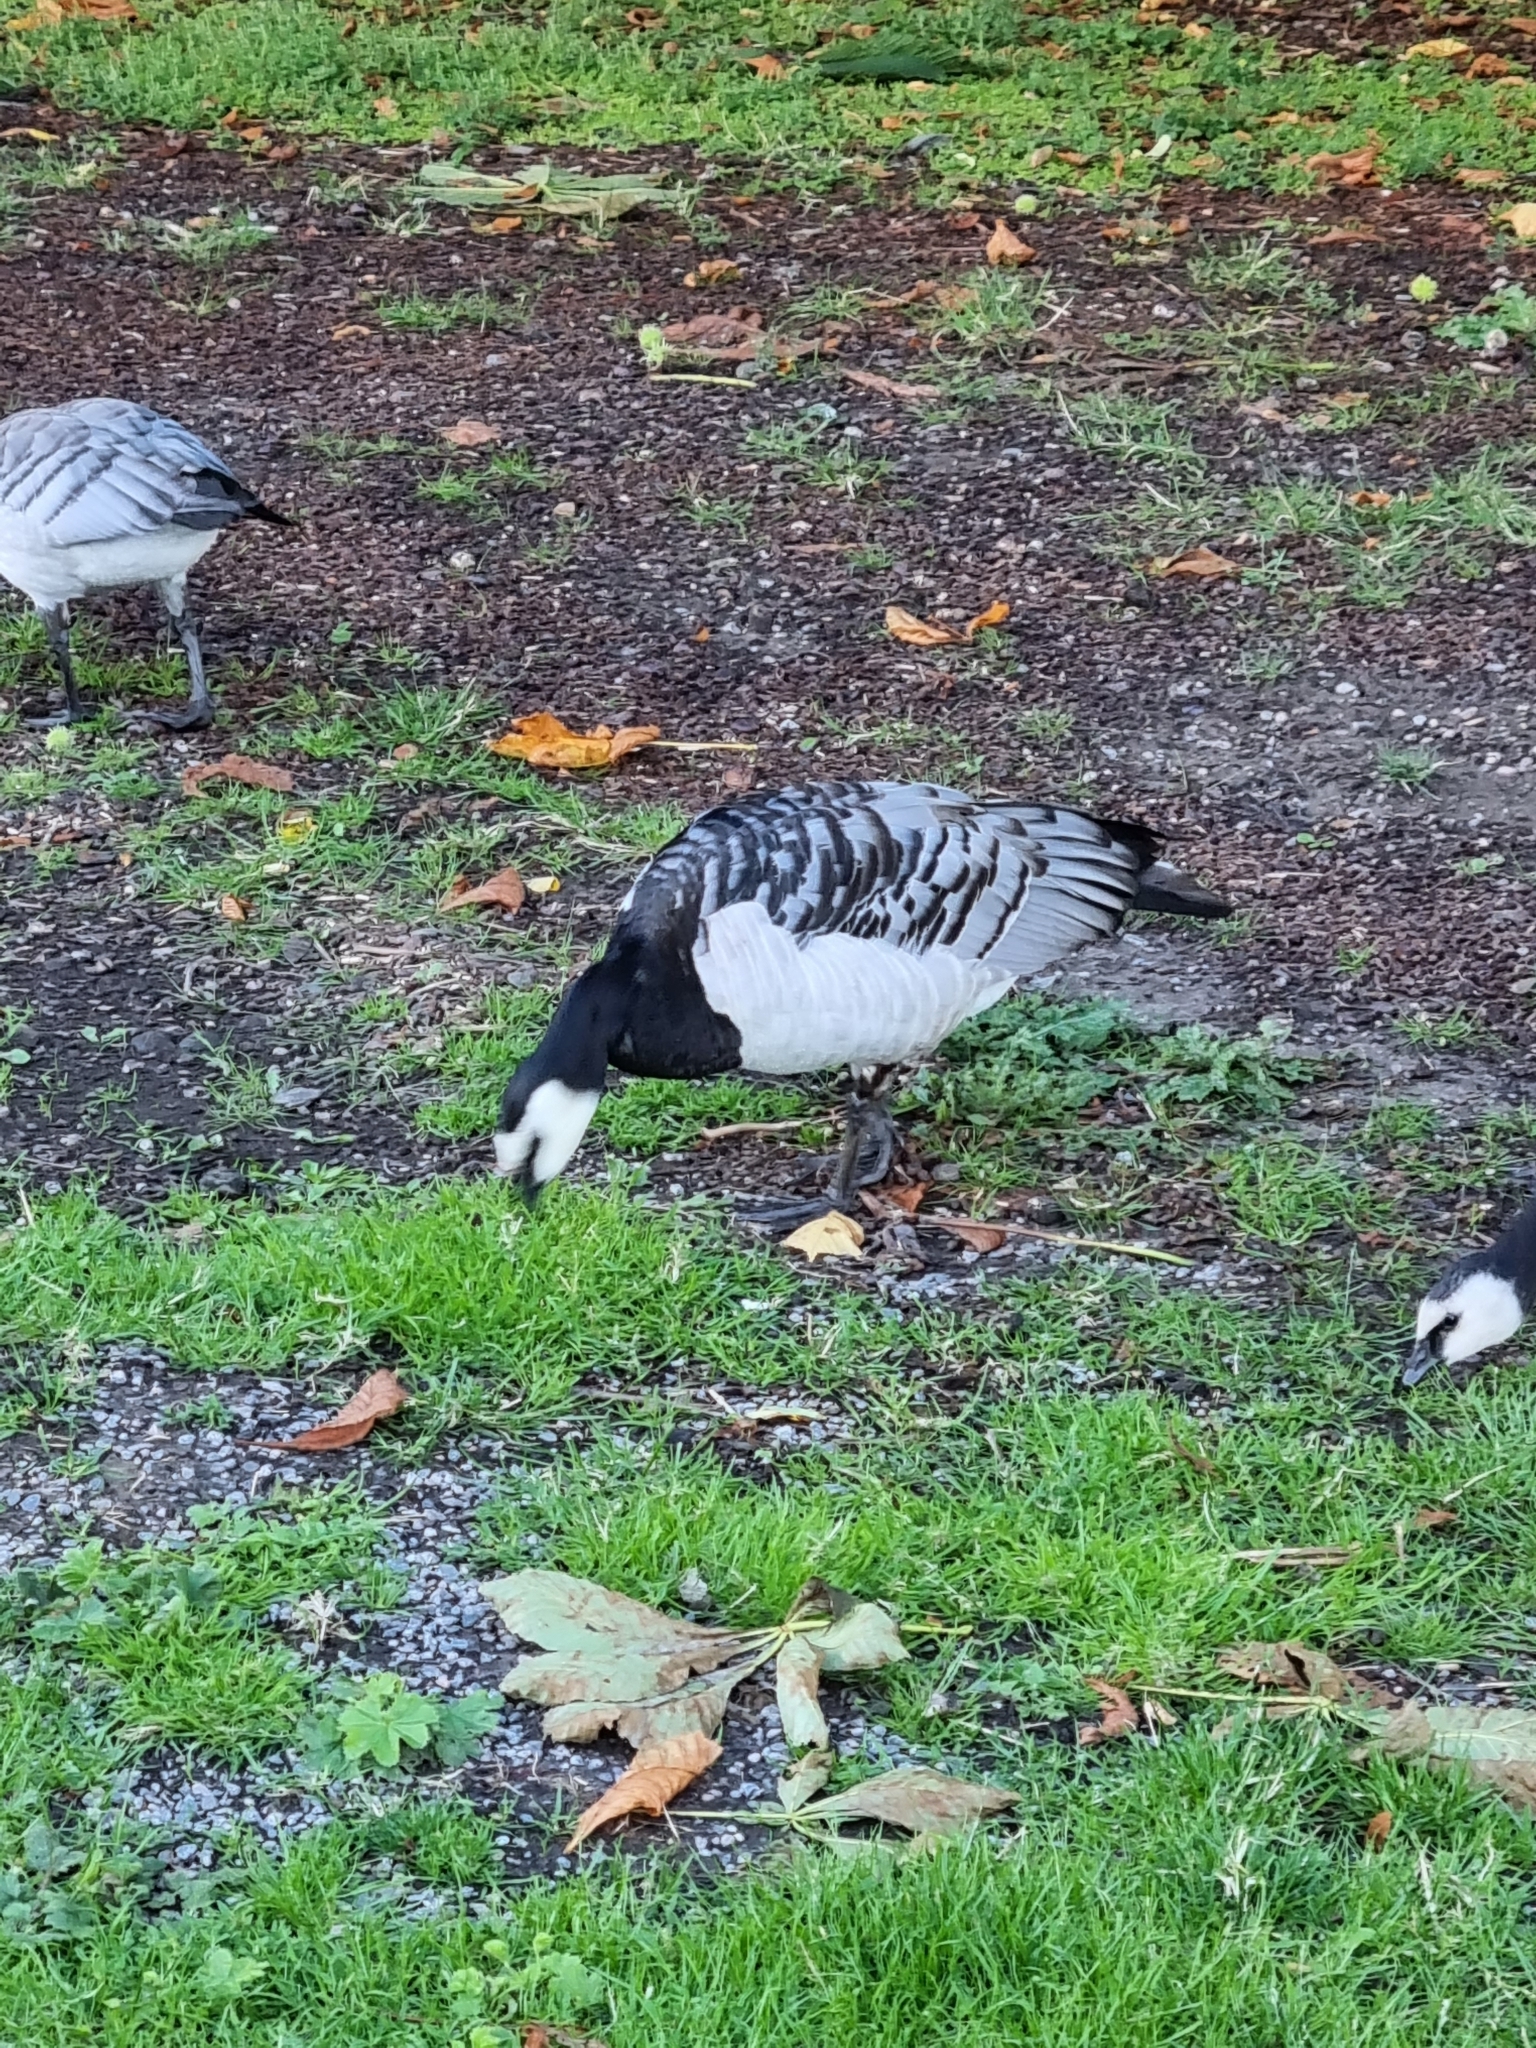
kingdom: Animalia
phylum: Chordata
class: Aves
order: Anseriformes
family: Anatidae
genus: Branta
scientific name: Branta leucopsis
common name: Barnacle goose
